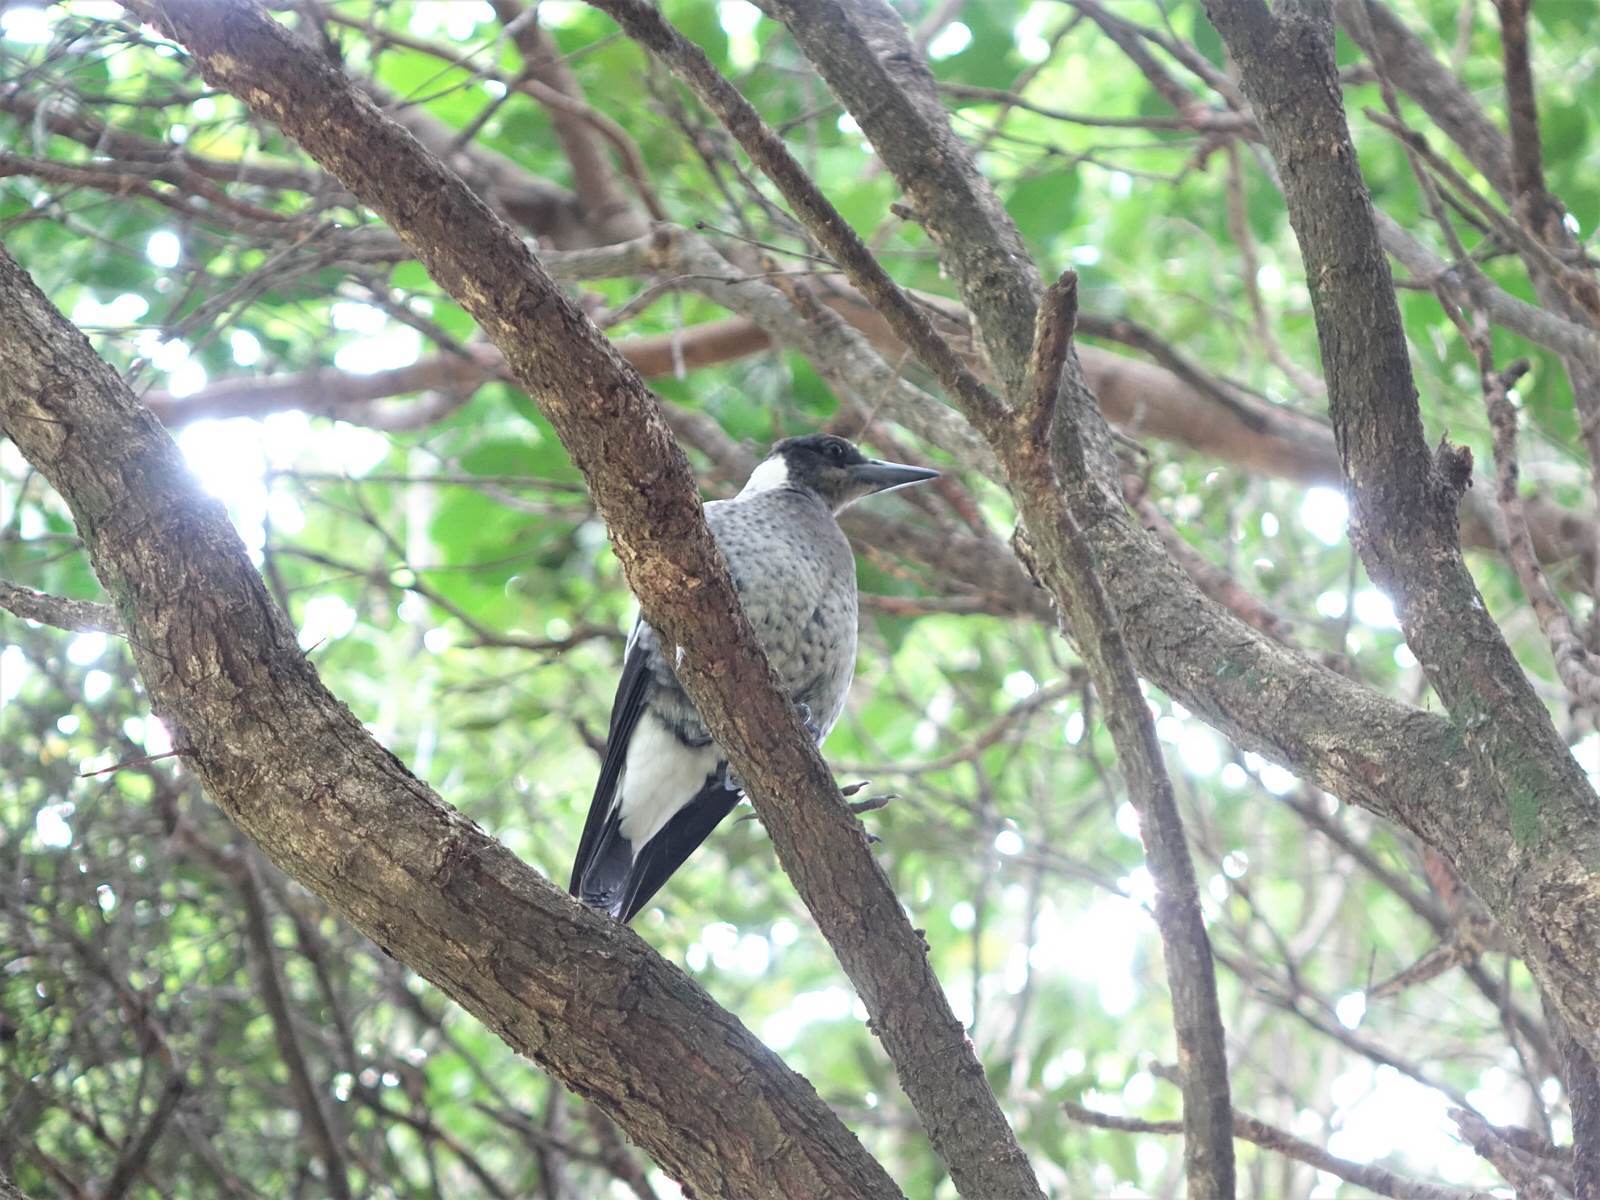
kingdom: Animalia
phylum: Chordata
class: Aves
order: Passeriformes
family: Cracticidae
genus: Gymnorhina
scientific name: Gymnorhina tibicen
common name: Australian magpie
